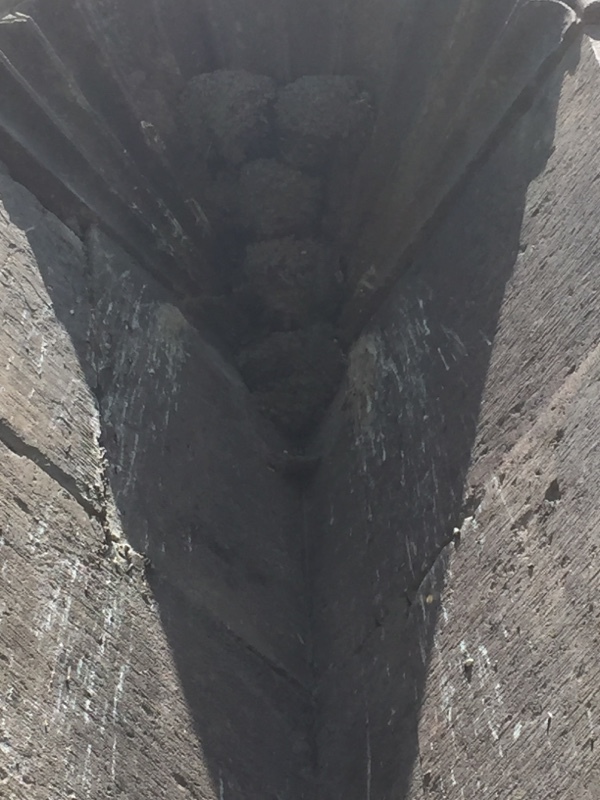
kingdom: Animalia
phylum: Chordata
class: Aves
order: Passeriformes
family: Hirundinidae
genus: Delichon
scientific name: Delichon urbicum
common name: Common house martin
